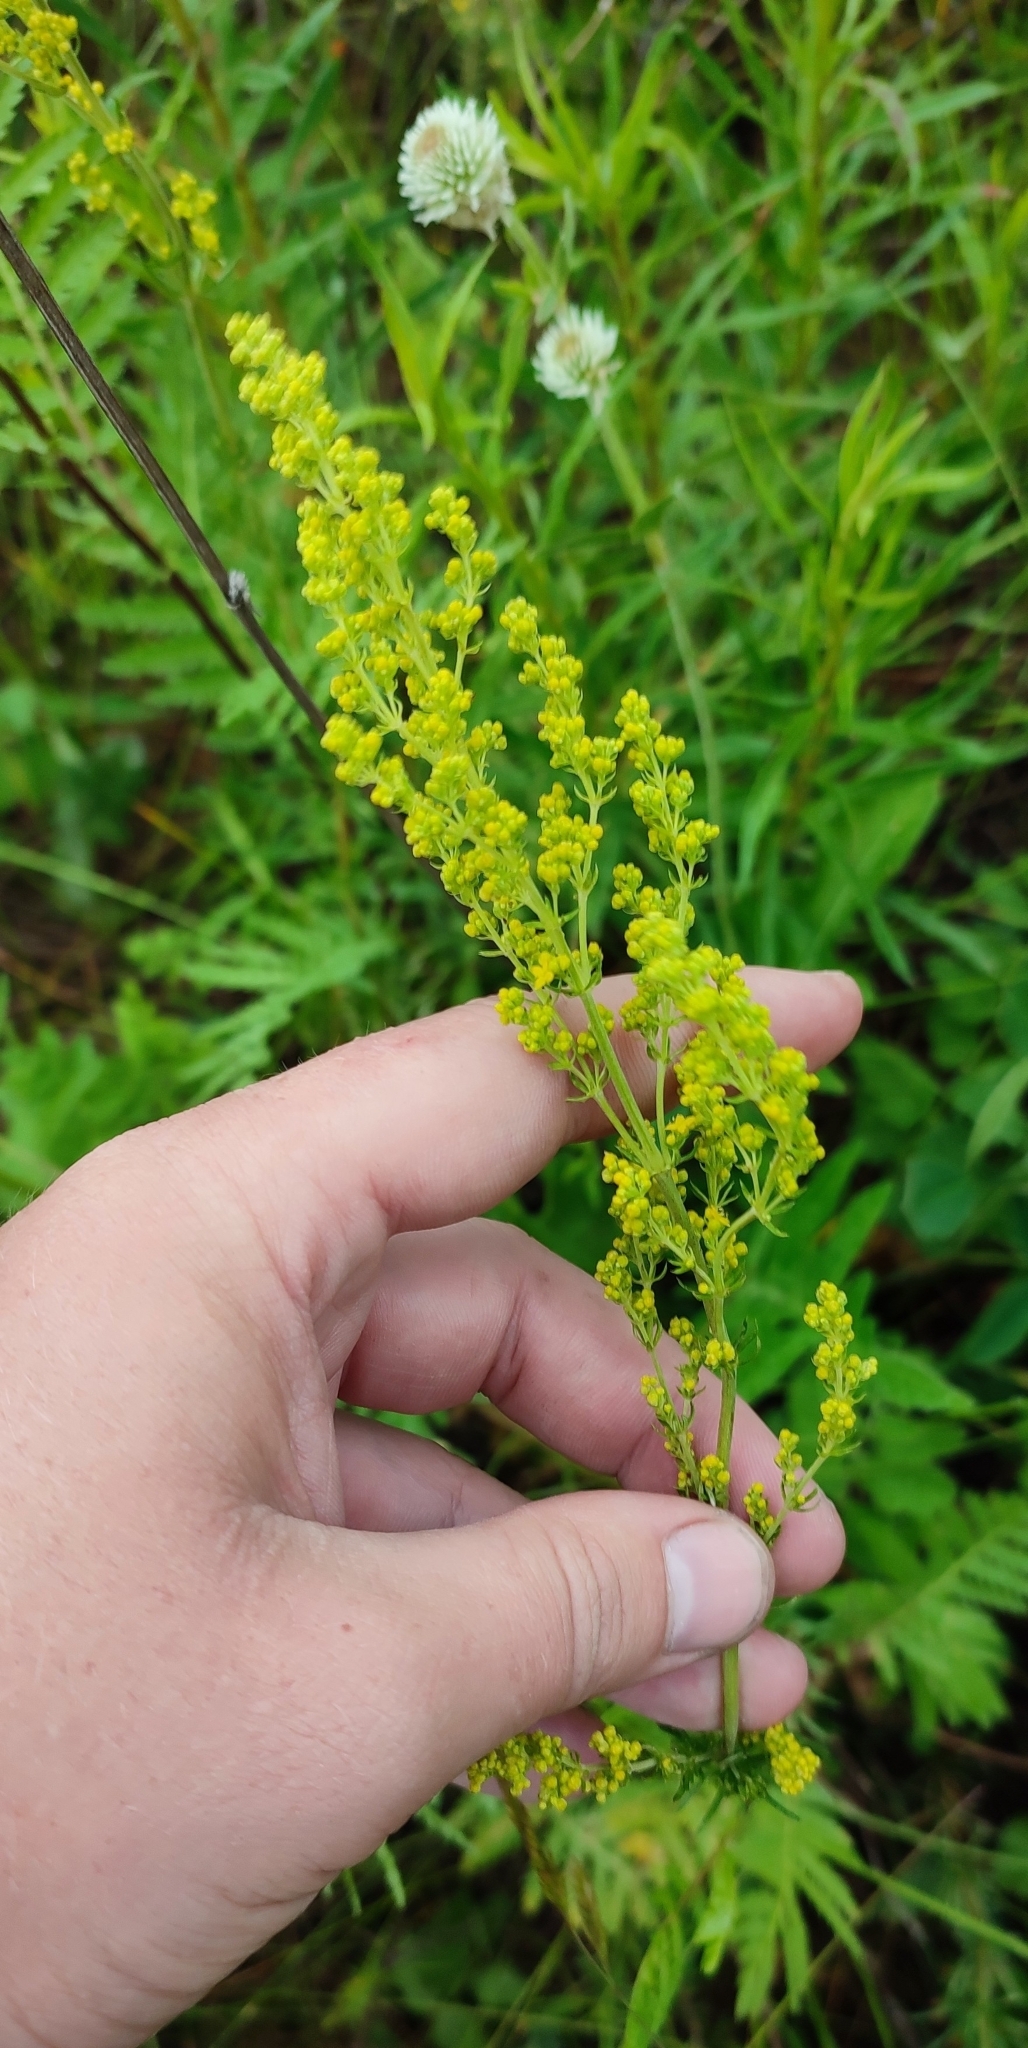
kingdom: Plantae
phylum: Tracheophyta
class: Magnoliopsida
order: Gentianales
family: Rubiaceae
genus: Galium
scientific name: Galium verum
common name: Lady's bedstraw
